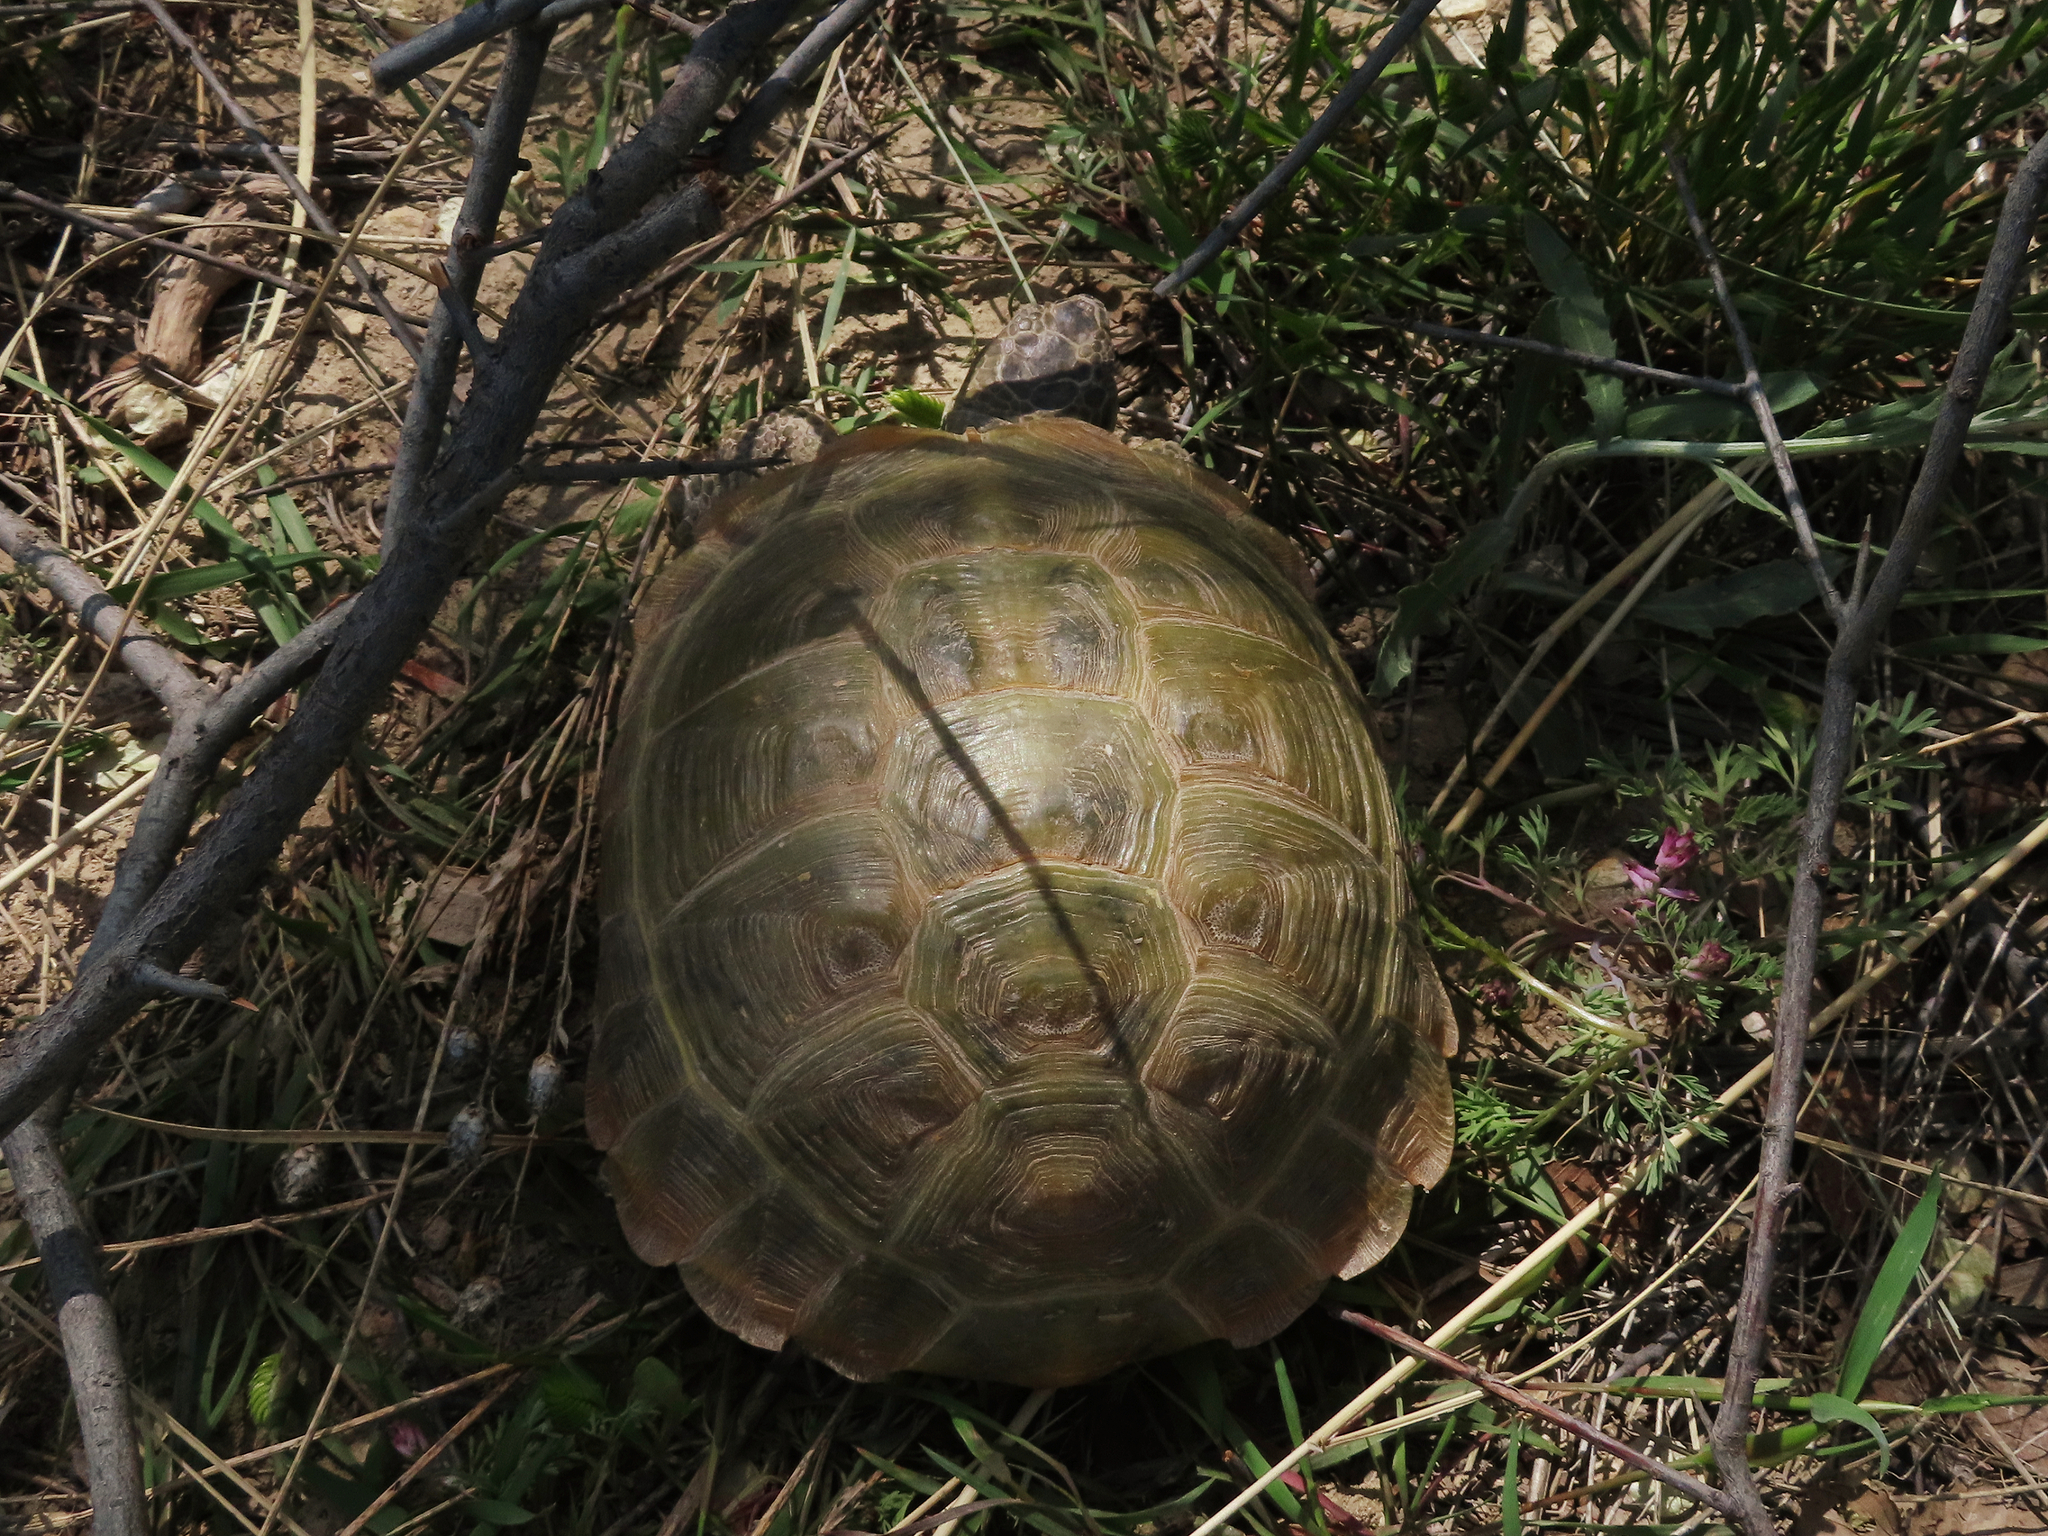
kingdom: Animalia
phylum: Chordata
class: Testudines
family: Testudinidae
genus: Testudo
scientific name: Testudo horsfieldii
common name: Central asia tortoise
